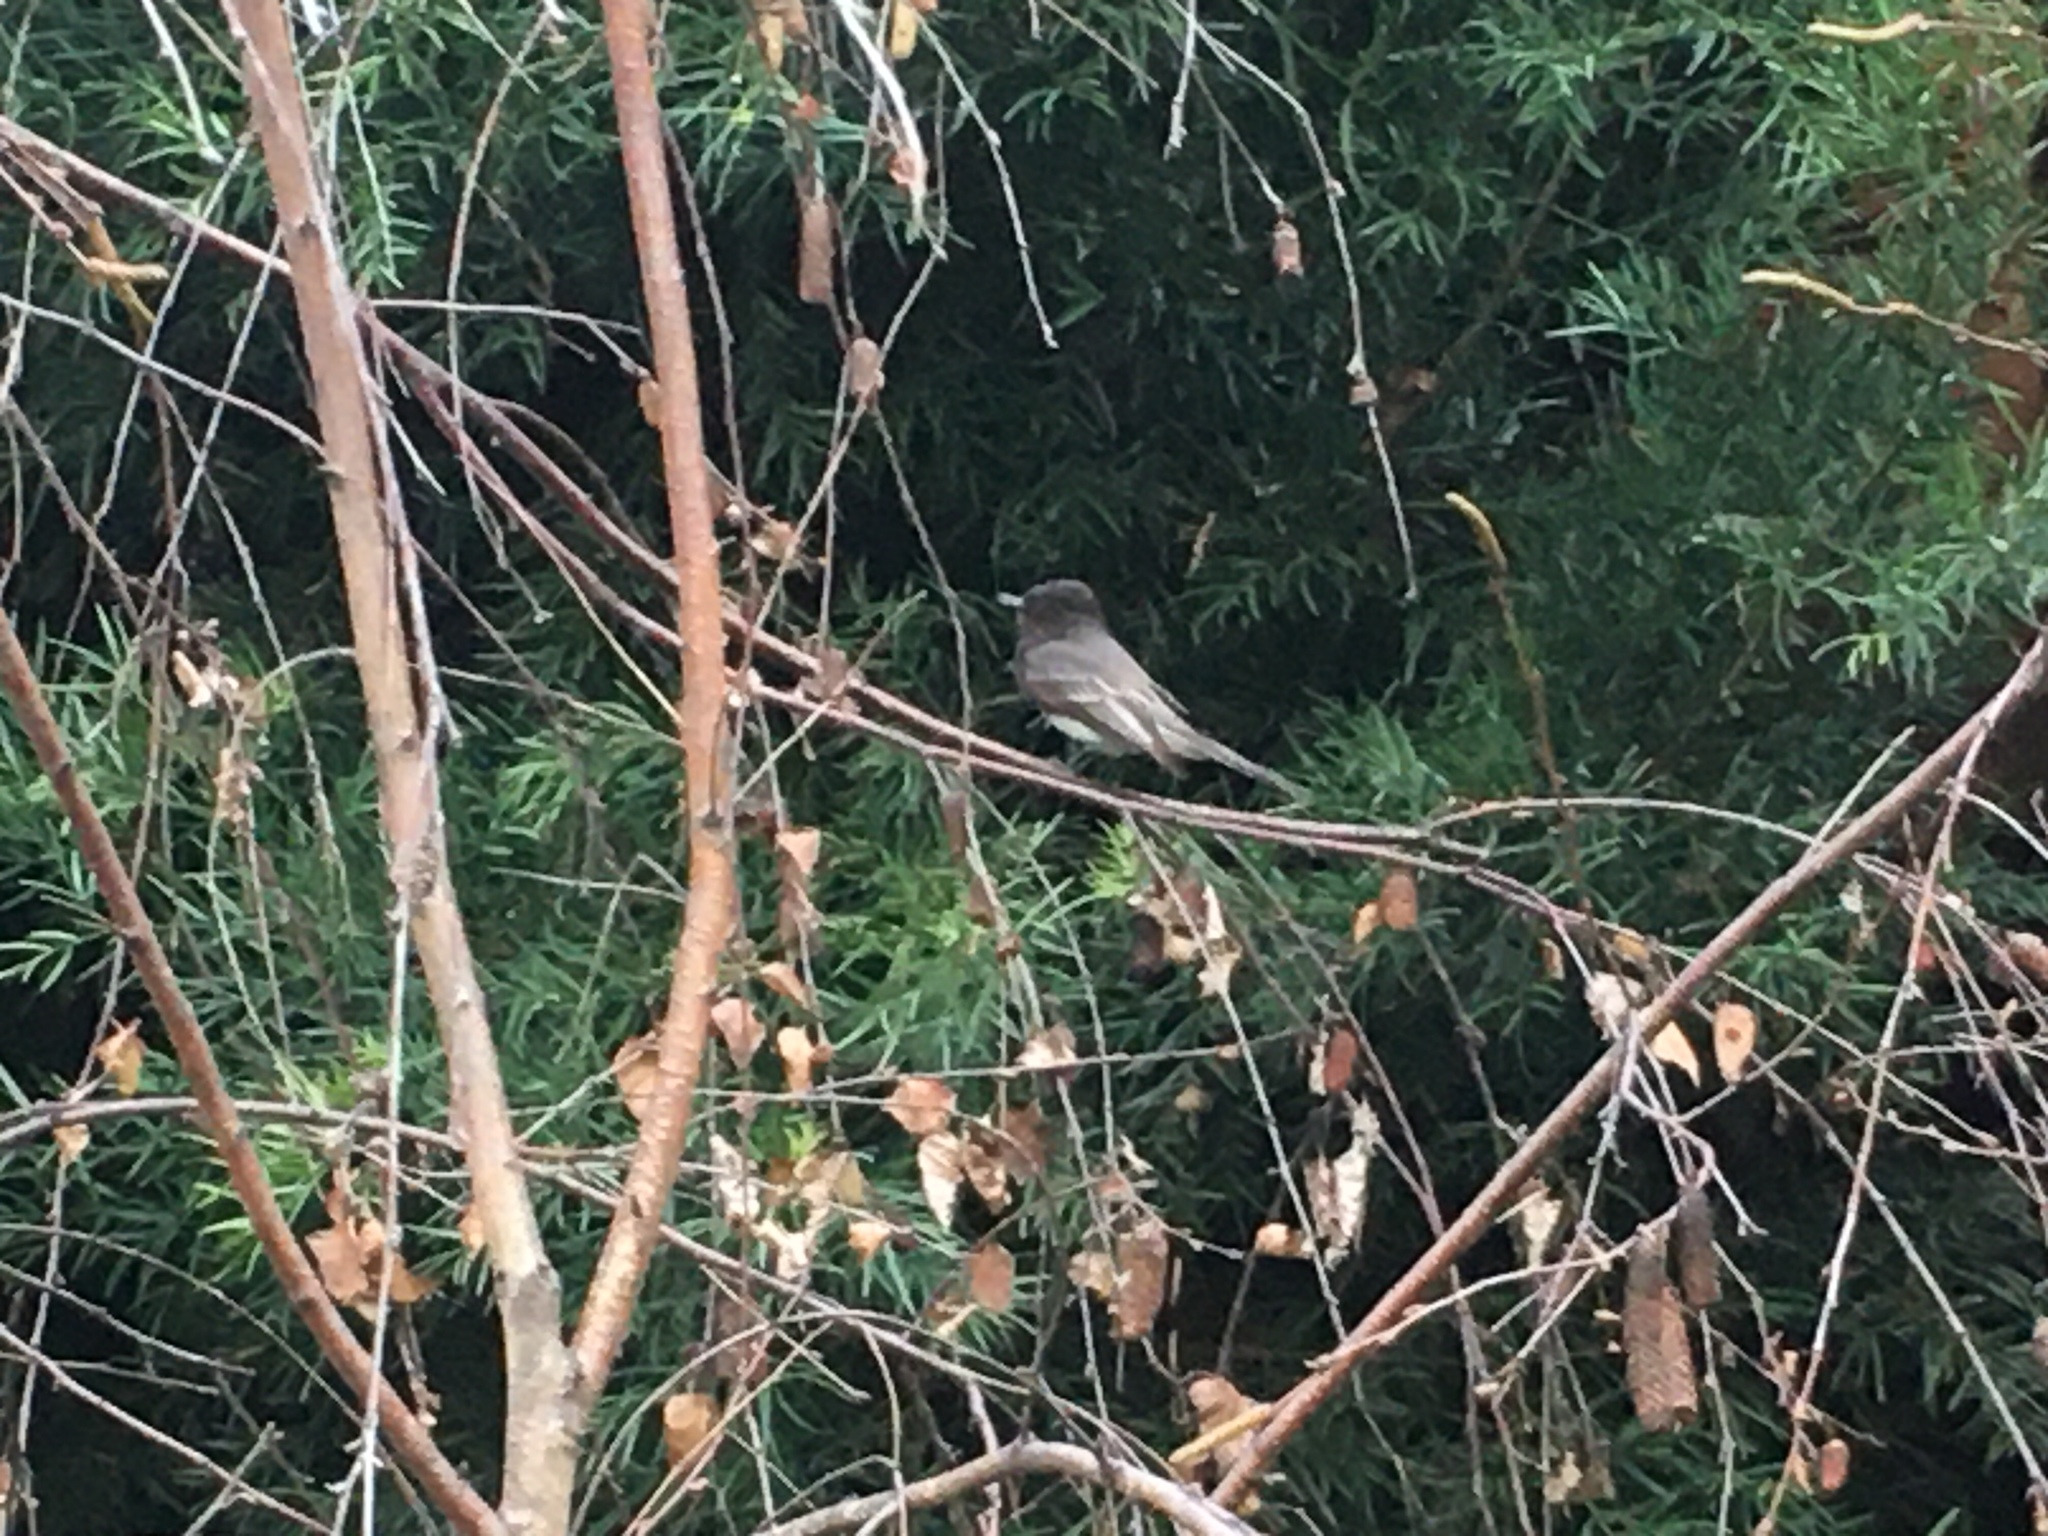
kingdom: Animalia
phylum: Chordata
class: Aves
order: Passeriformes
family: Tyrannidae
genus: Sayornis
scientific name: Sayornis nigricans
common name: Black phoebe
